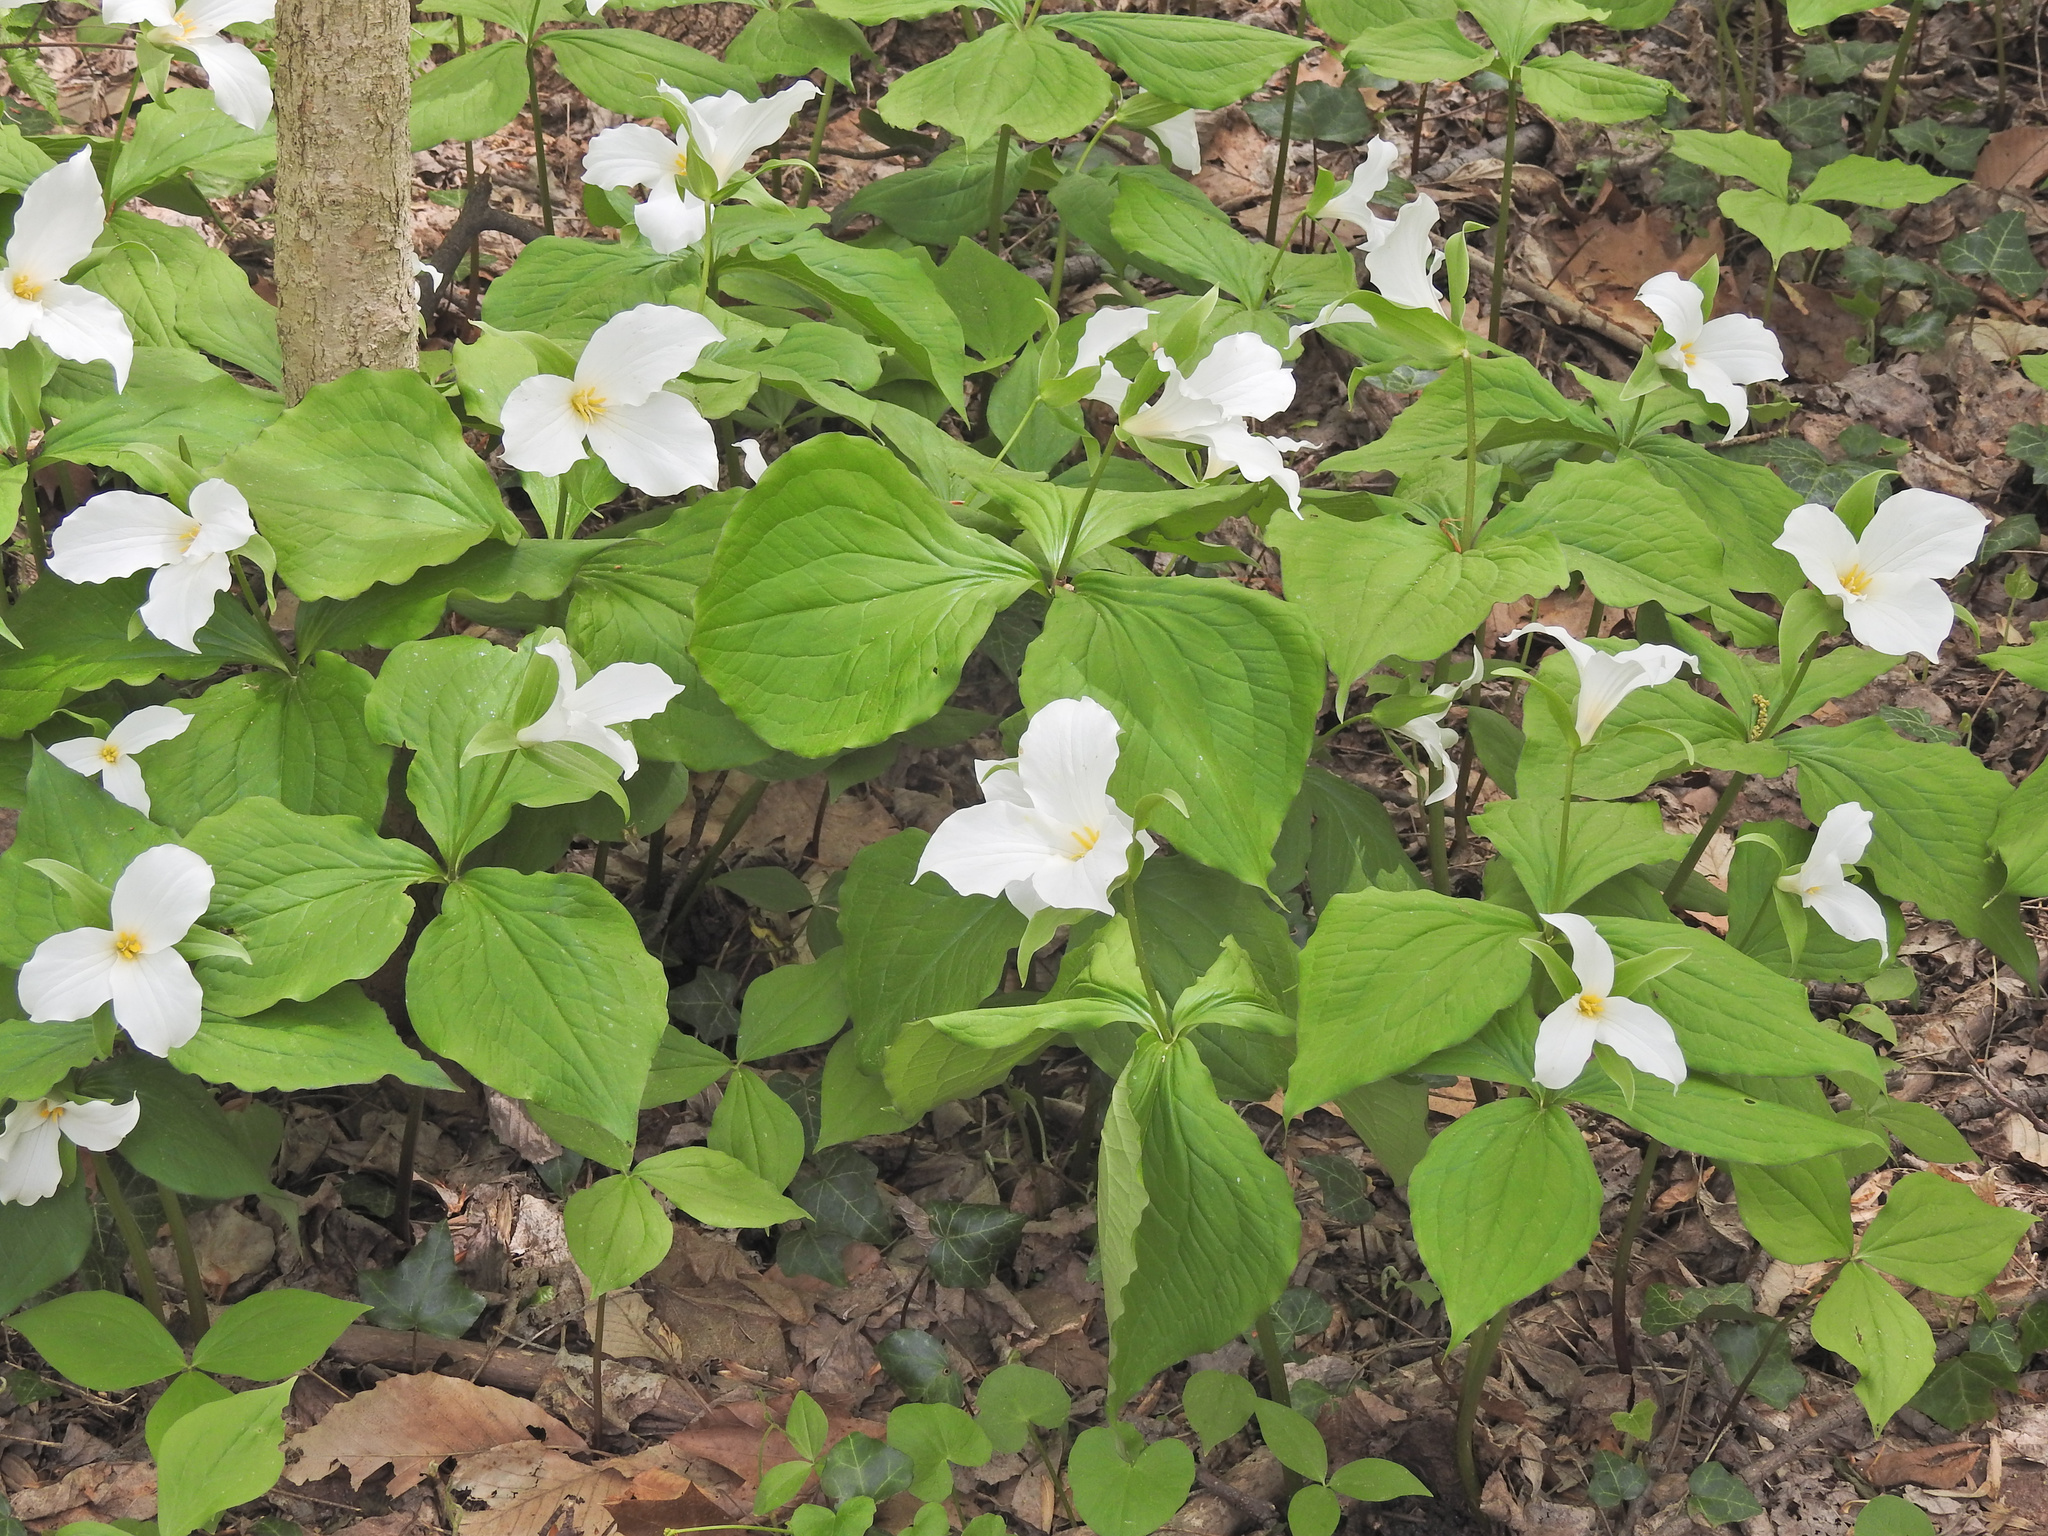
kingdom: Plantae
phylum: Tracheophyta
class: Liliopsida
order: Liliales
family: Melanthiaceae
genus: Trillium
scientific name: Trillium grandiflorum
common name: Great white trillium
